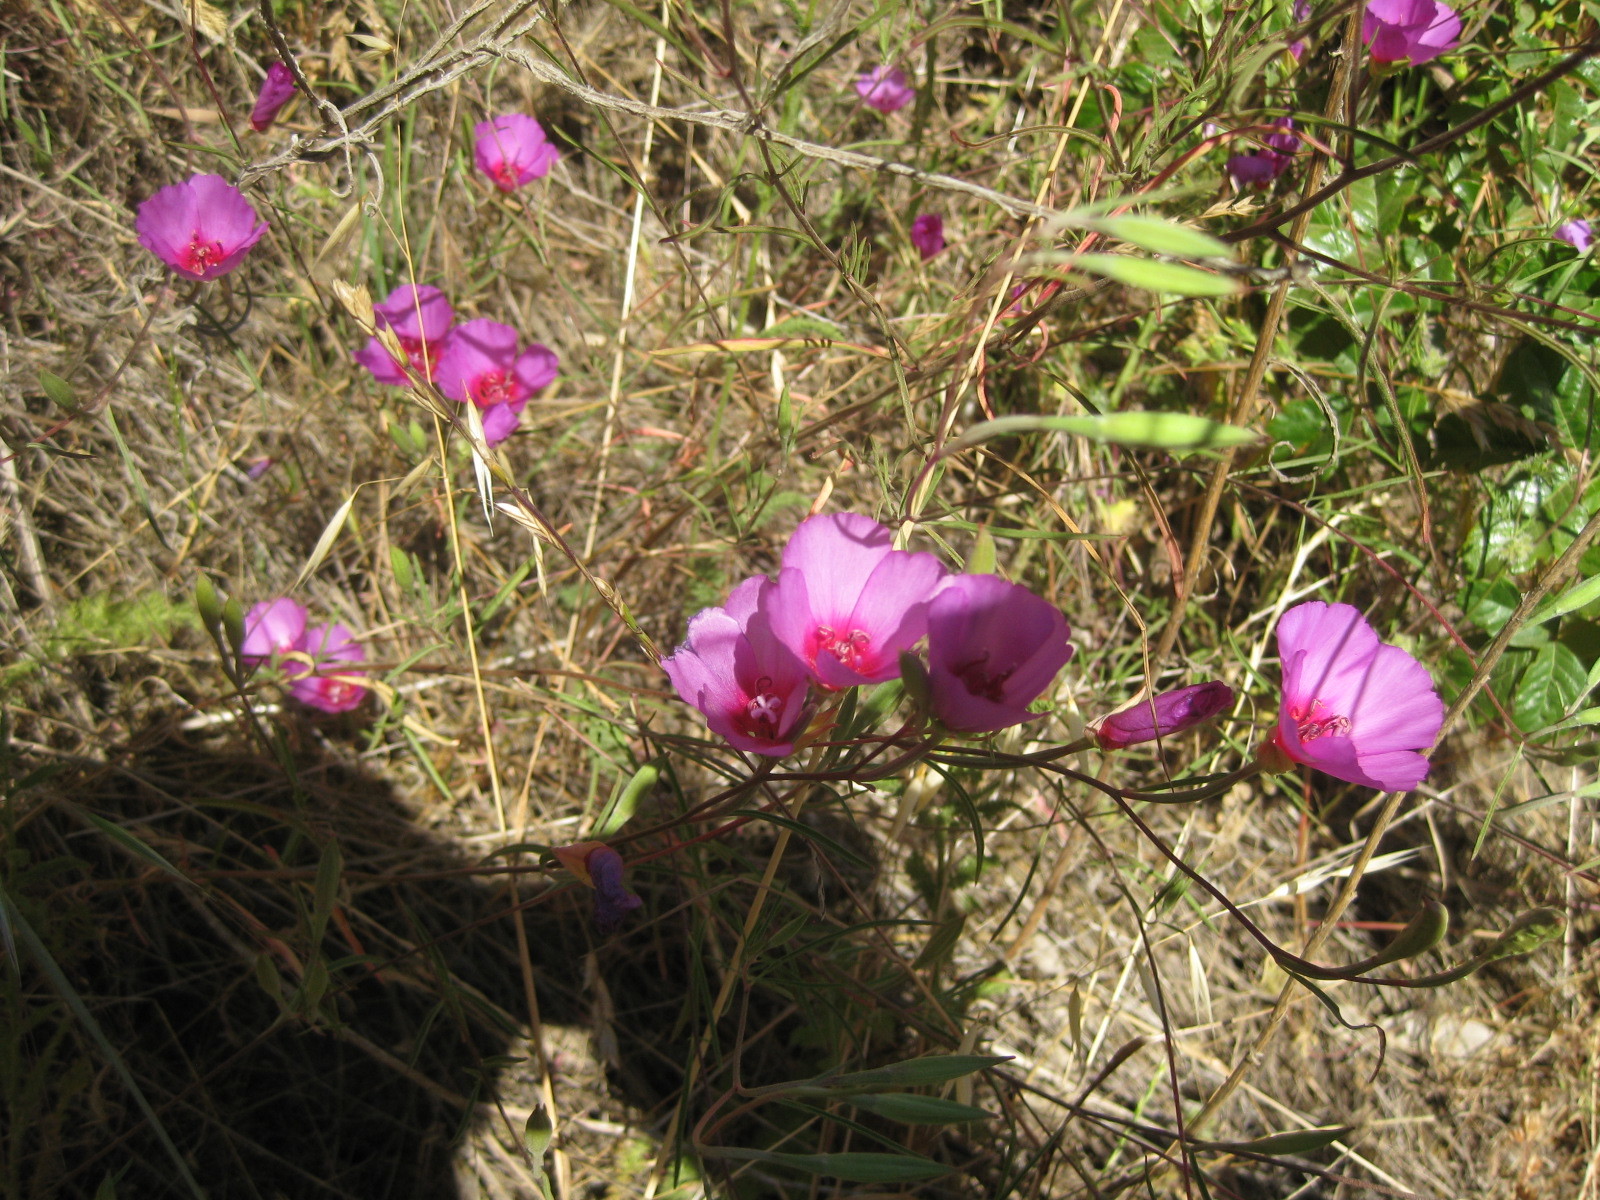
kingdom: Plantae
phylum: Tracheophyta
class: Magnoliopsida
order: Myrtales
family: Onagraceae
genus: Clarkia
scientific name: Clarkia rubicunda
